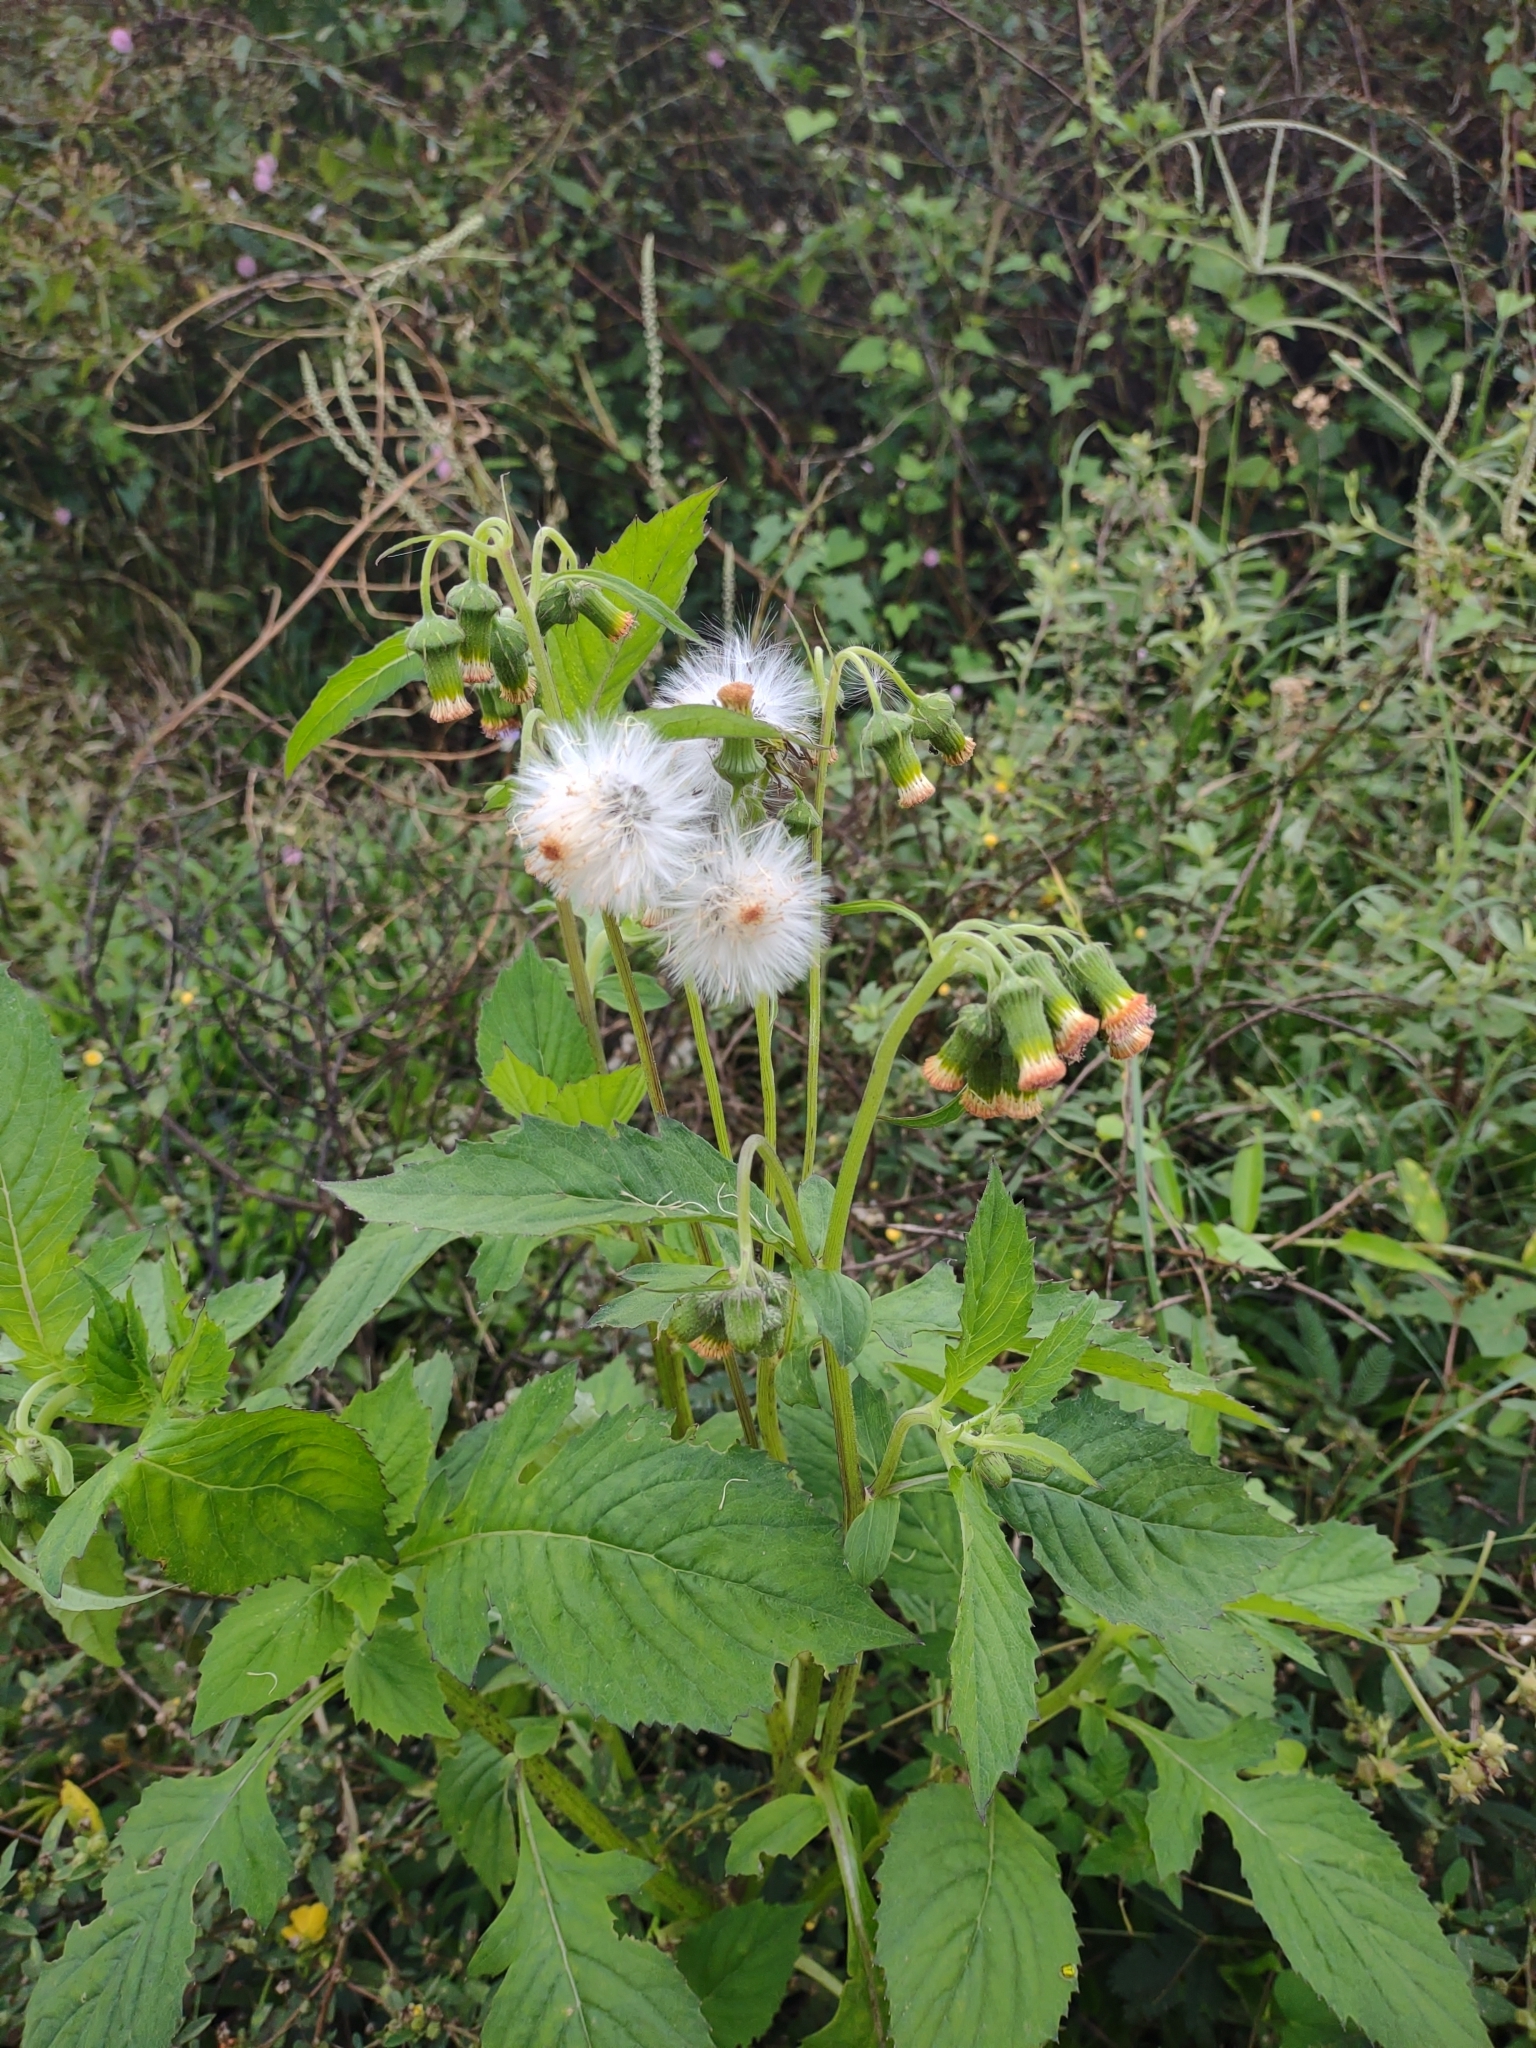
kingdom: Plantae
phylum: Tracheophyta
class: Magnoliopsida
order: Asterales
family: Asteraceae
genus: Crassocephalum
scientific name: Crassocephalum crepidioides
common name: Redflower ragleaf
